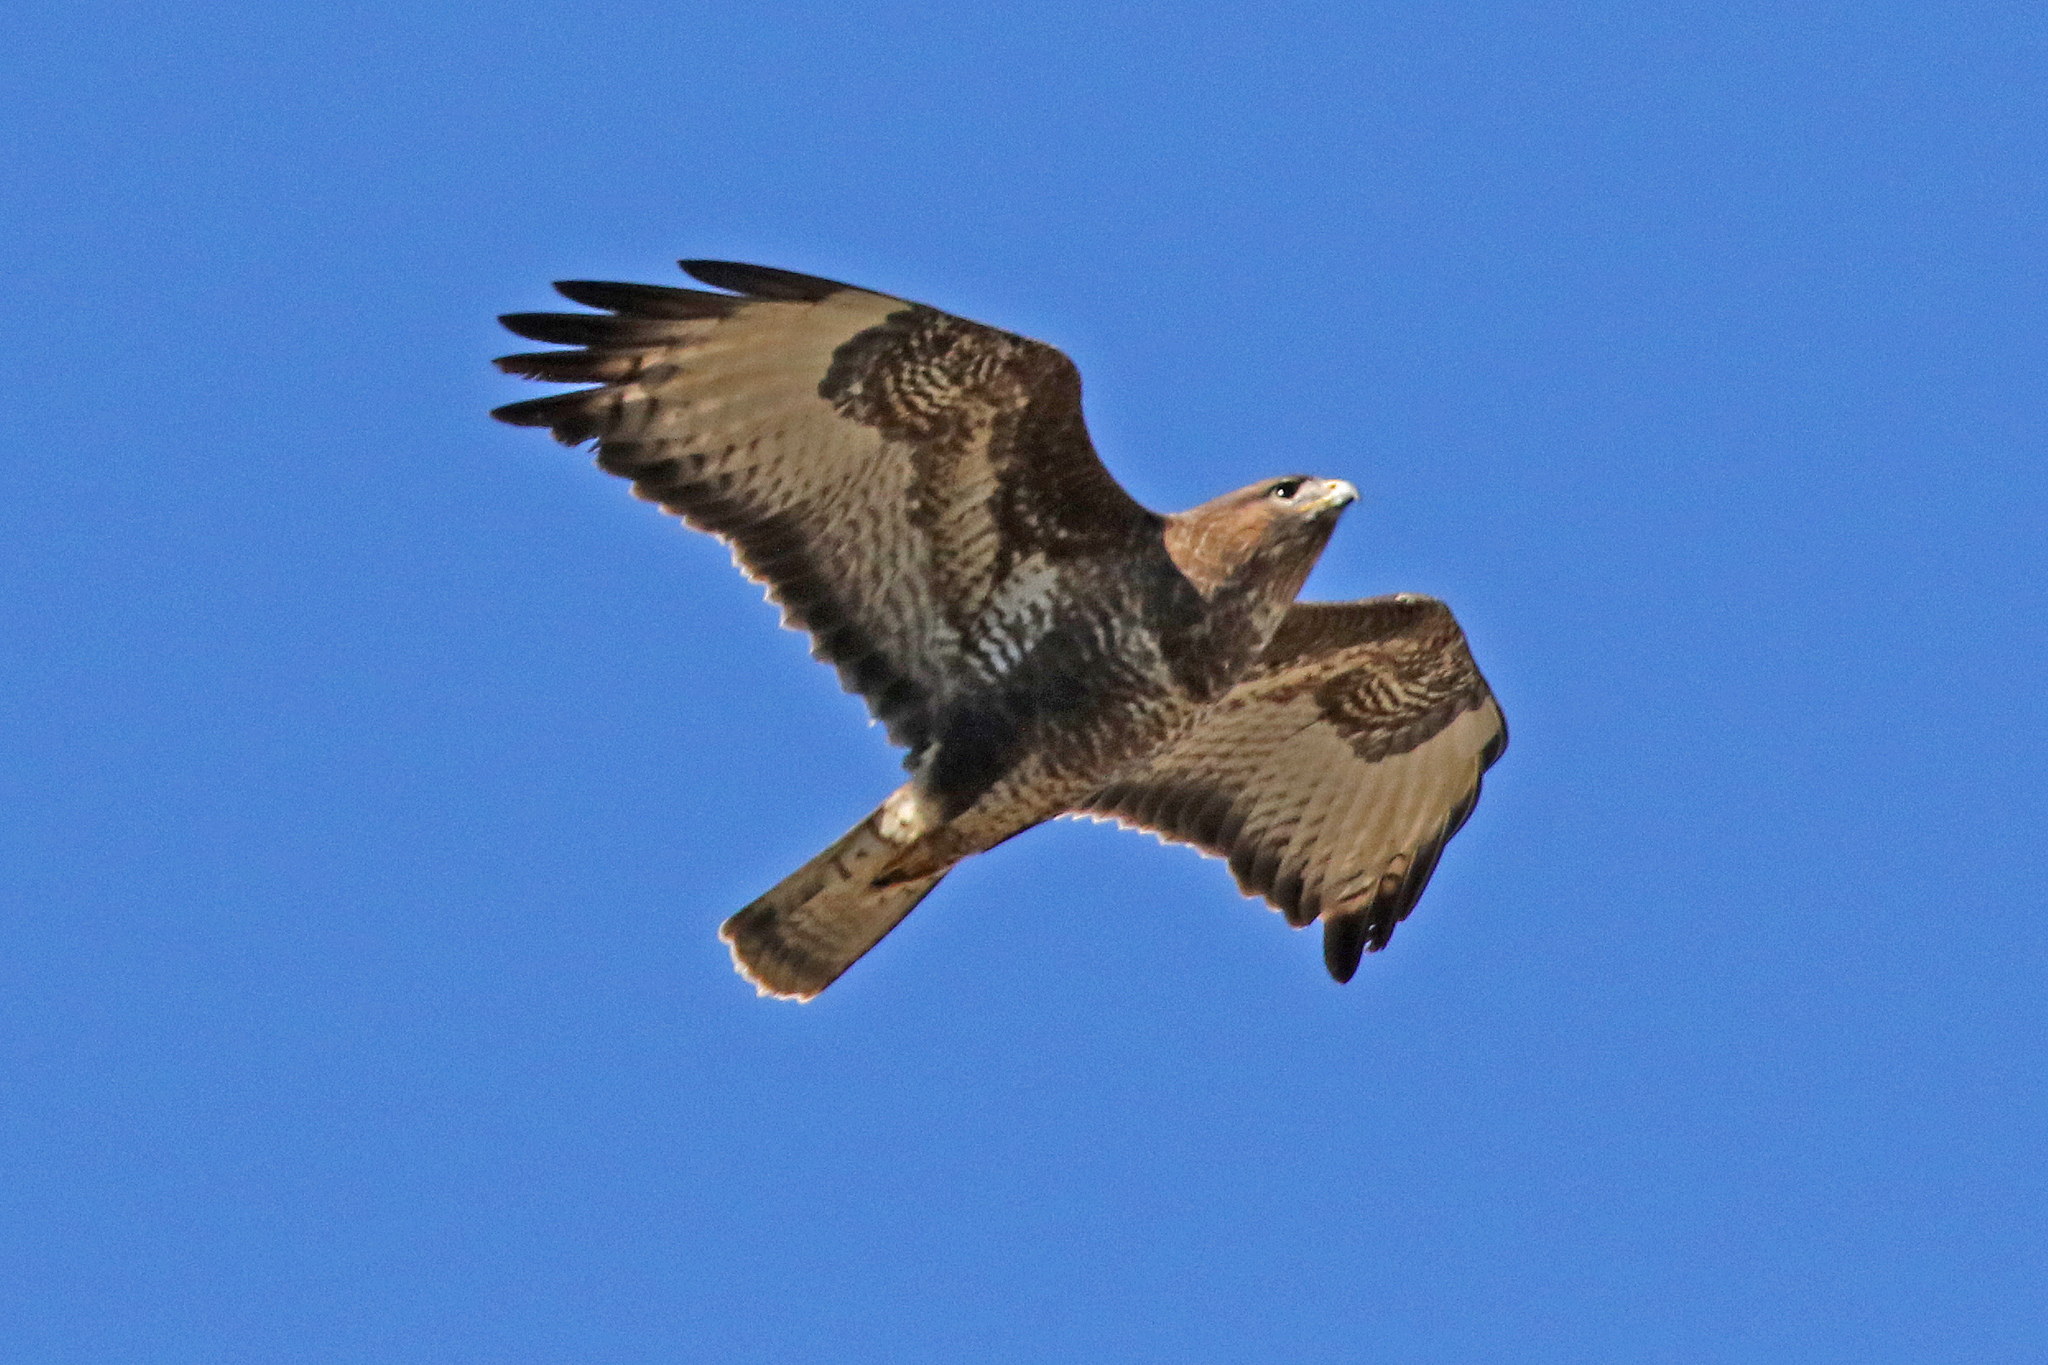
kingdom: Animalia
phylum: Chordata
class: Aves
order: Accipitriformes
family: Accipitridae
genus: Buteo
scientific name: Buteo buteo
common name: Common buzzard
